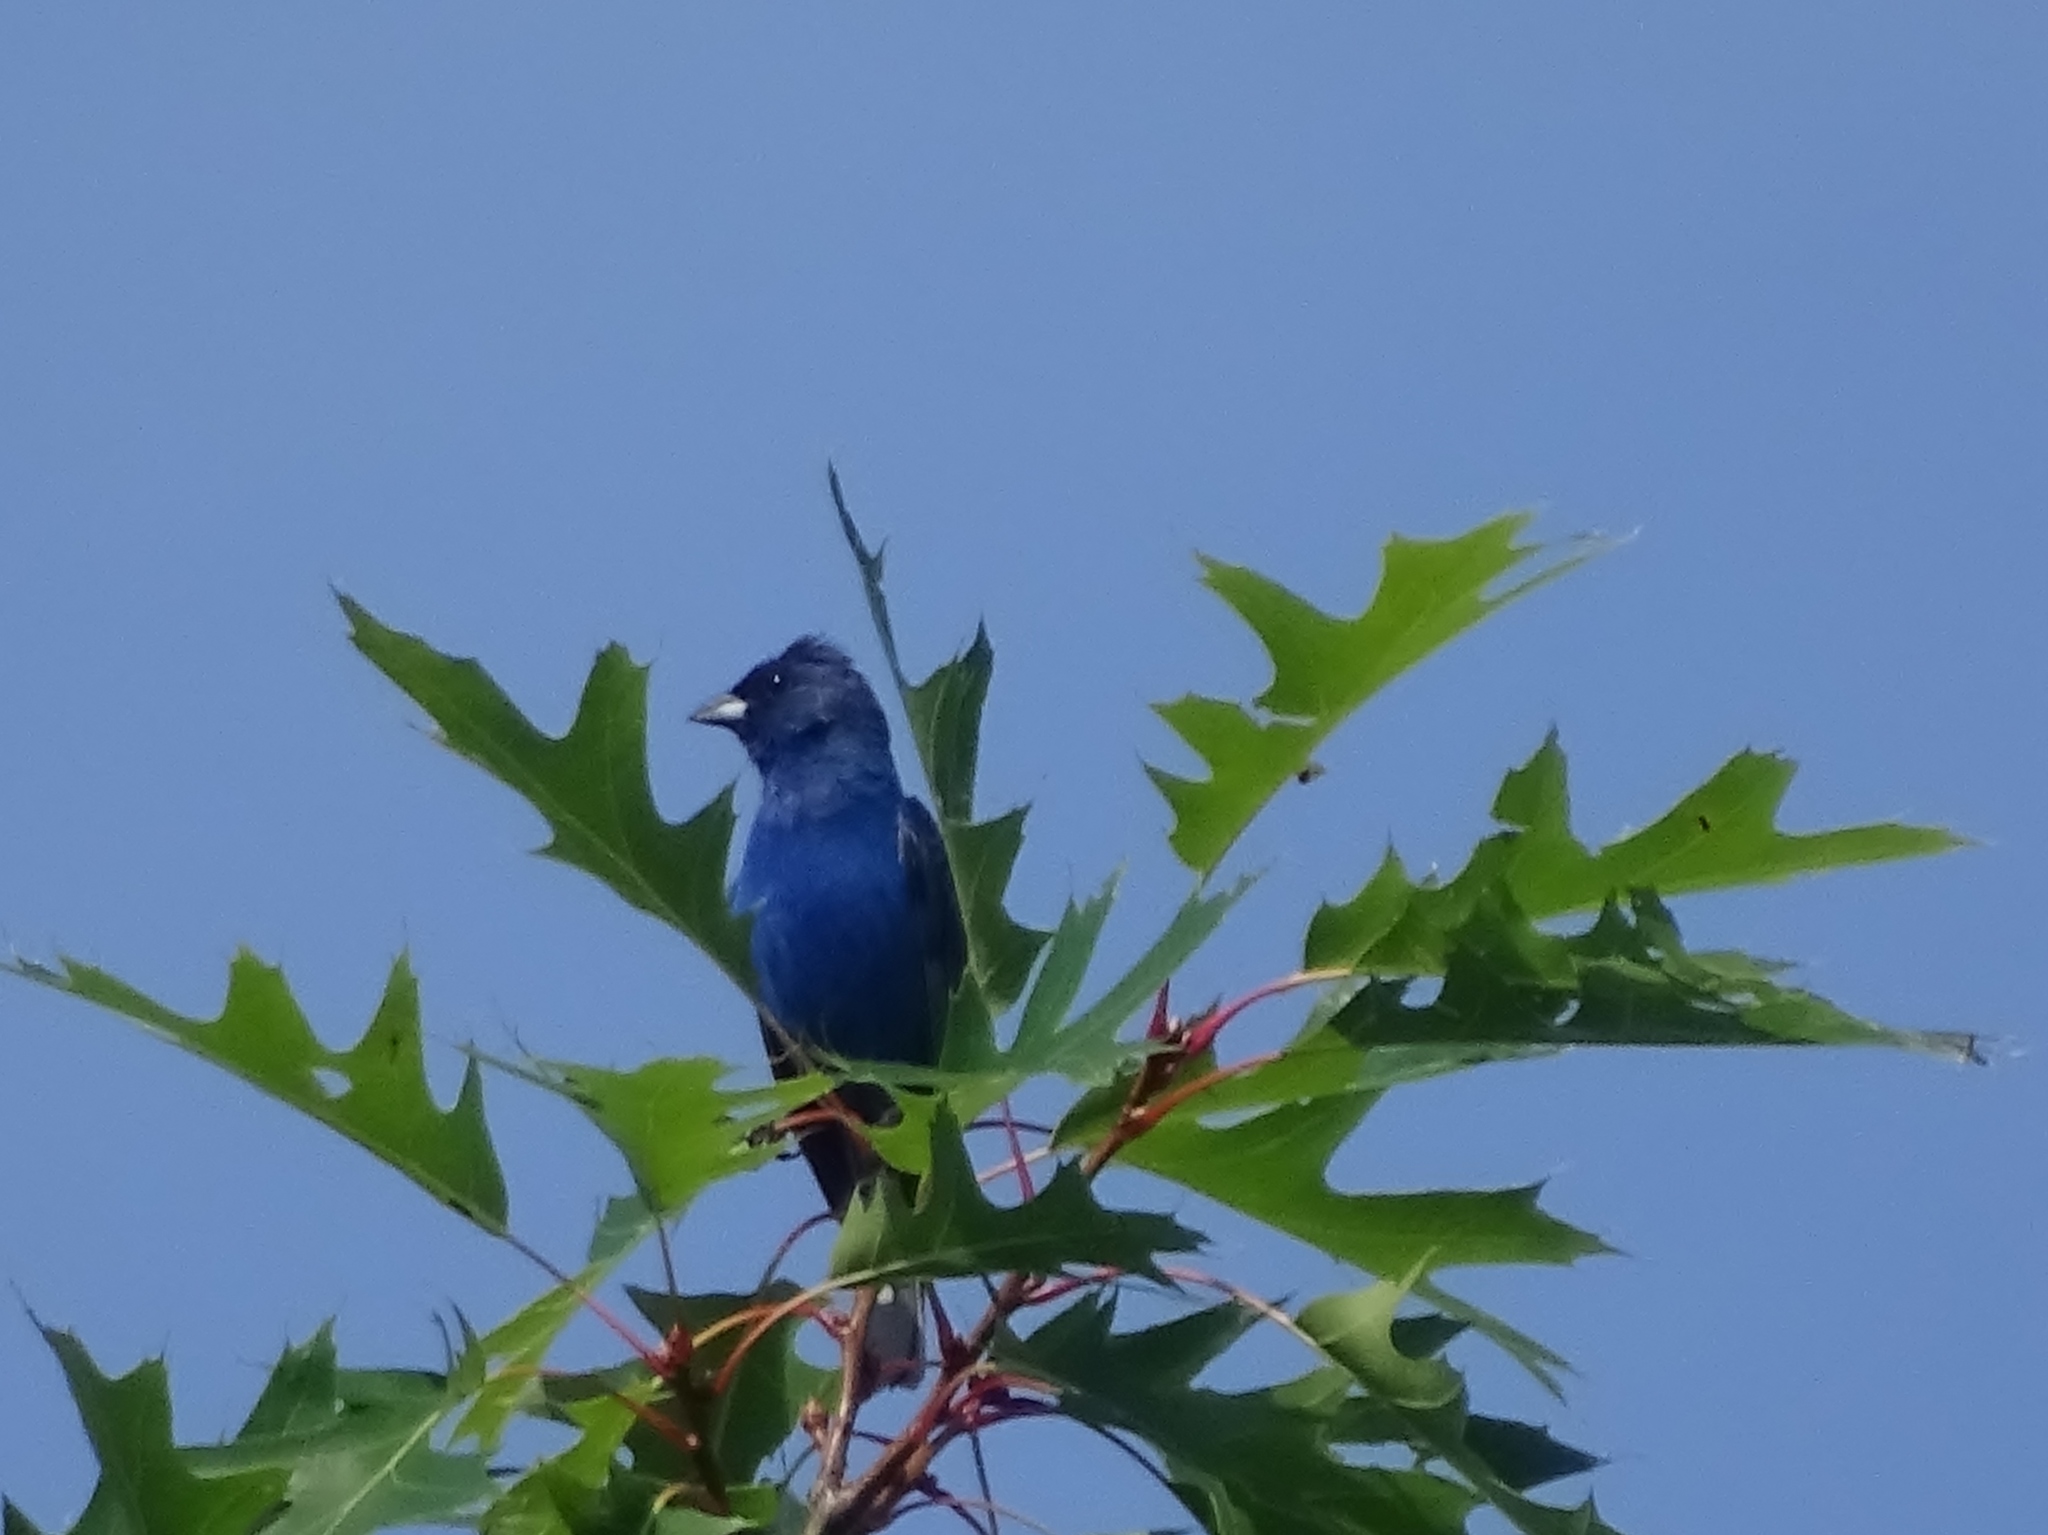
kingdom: Animalia
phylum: Chordata
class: Aves
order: Passeriformes
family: Cardinalidae
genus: Passerina
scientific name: Passerina cyanea
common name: Indigo bunting
